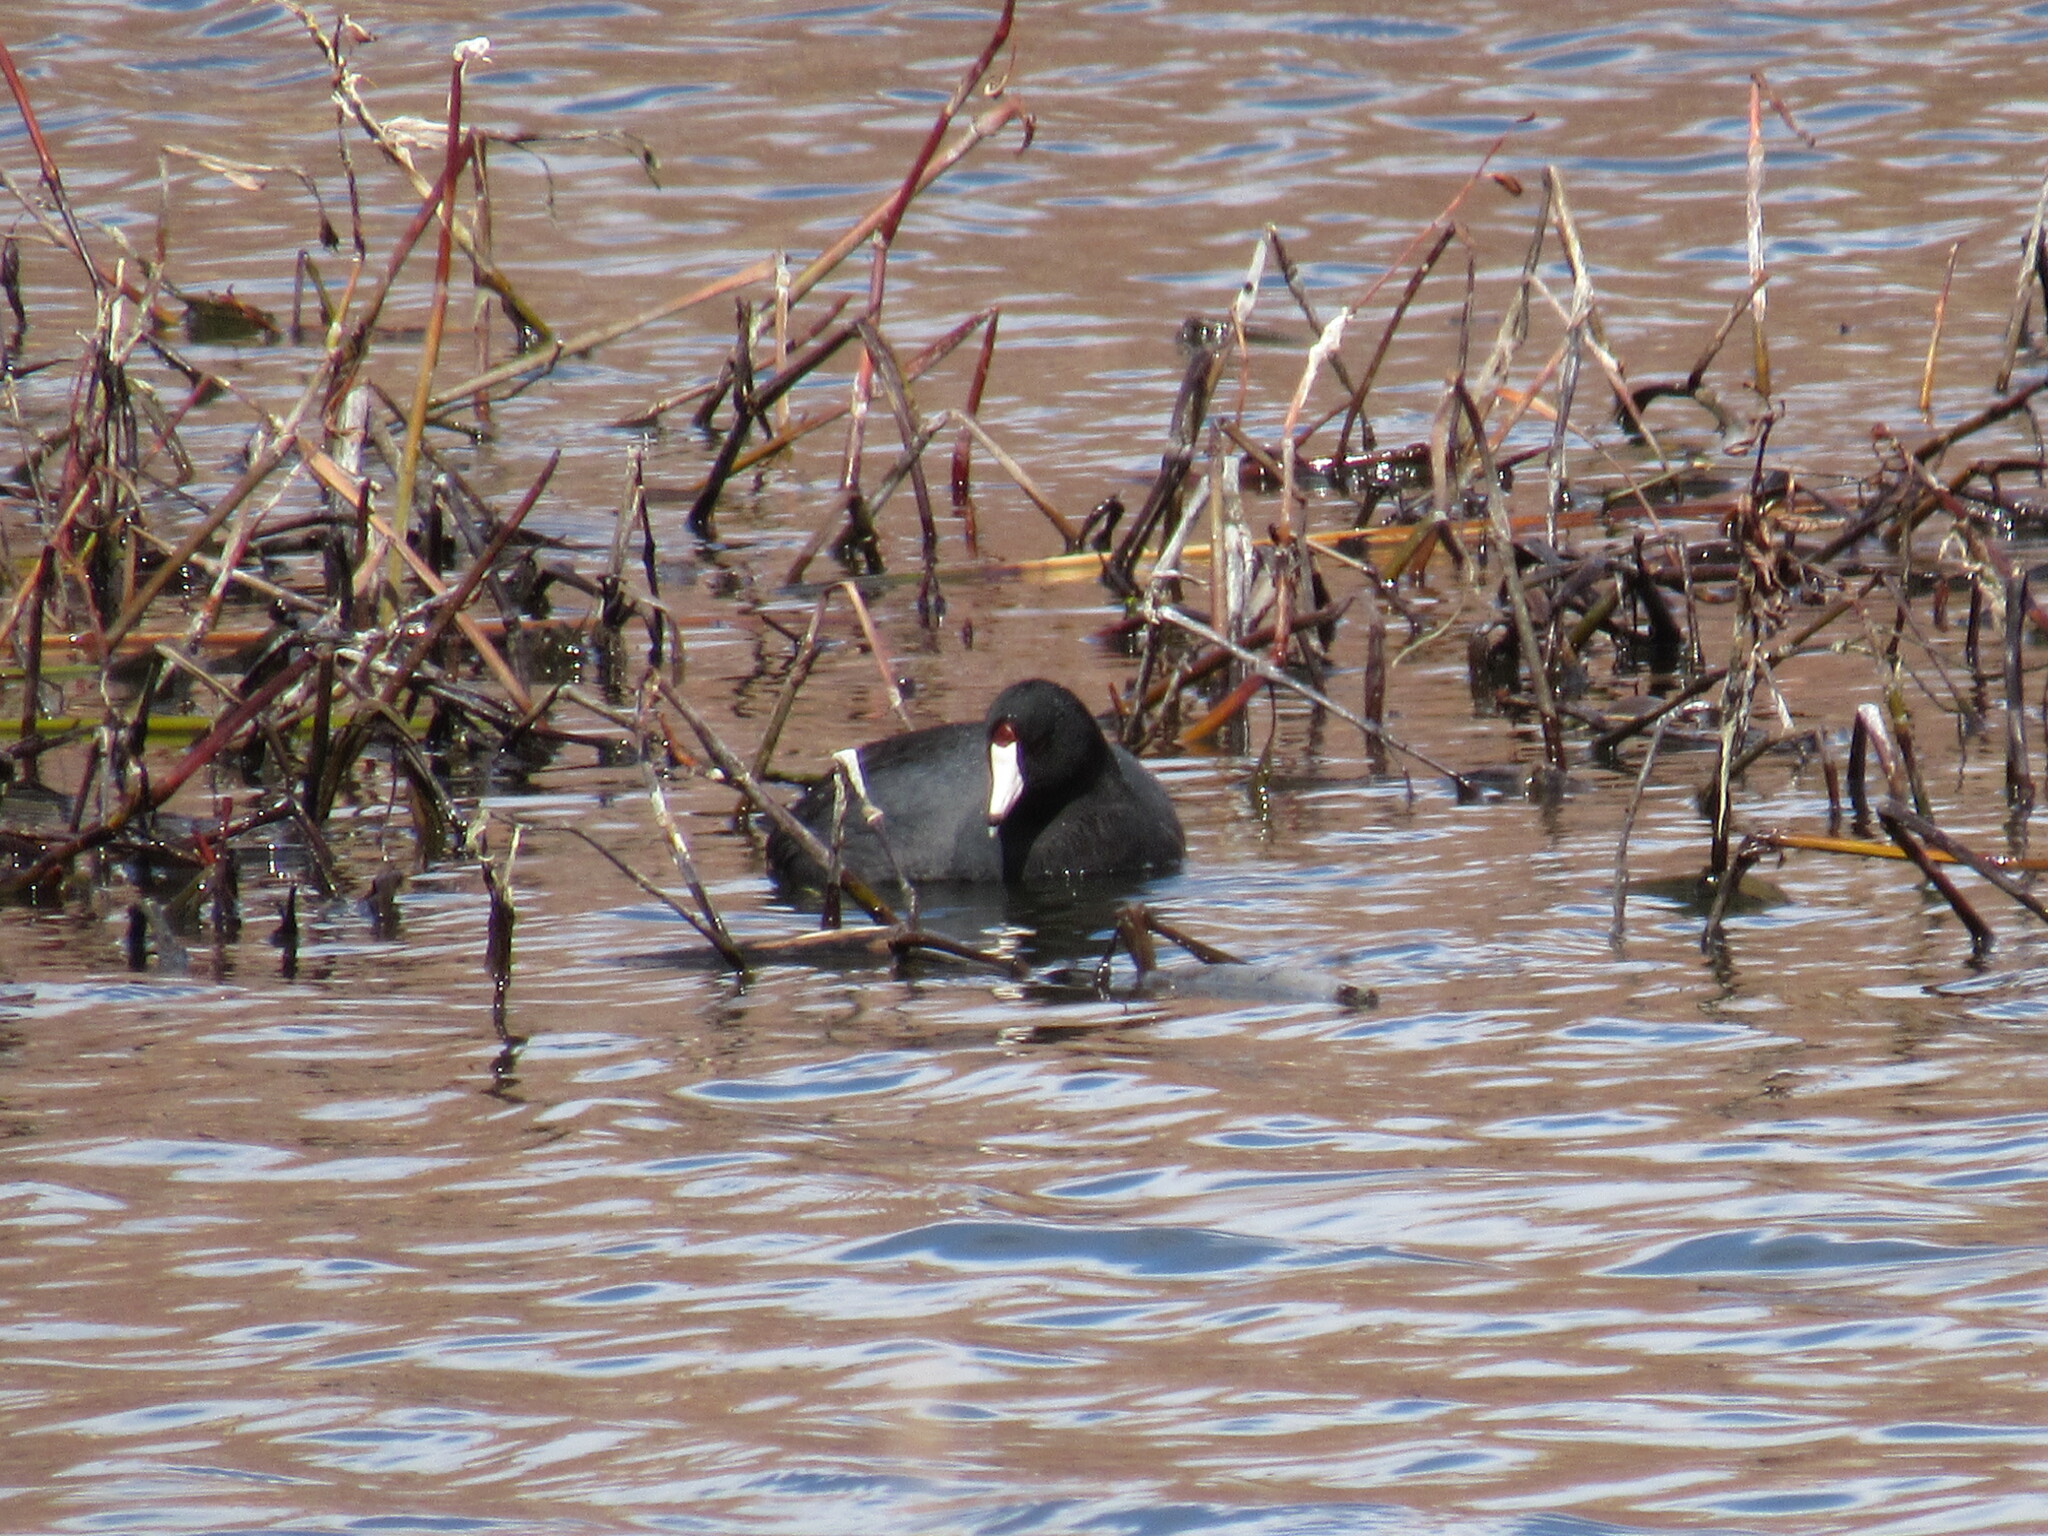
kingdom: Animalia
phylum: Chordata
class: Aves
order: Gruiformes
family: Rallidae
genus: Fulica
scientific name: Fulica americana
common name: American coot
